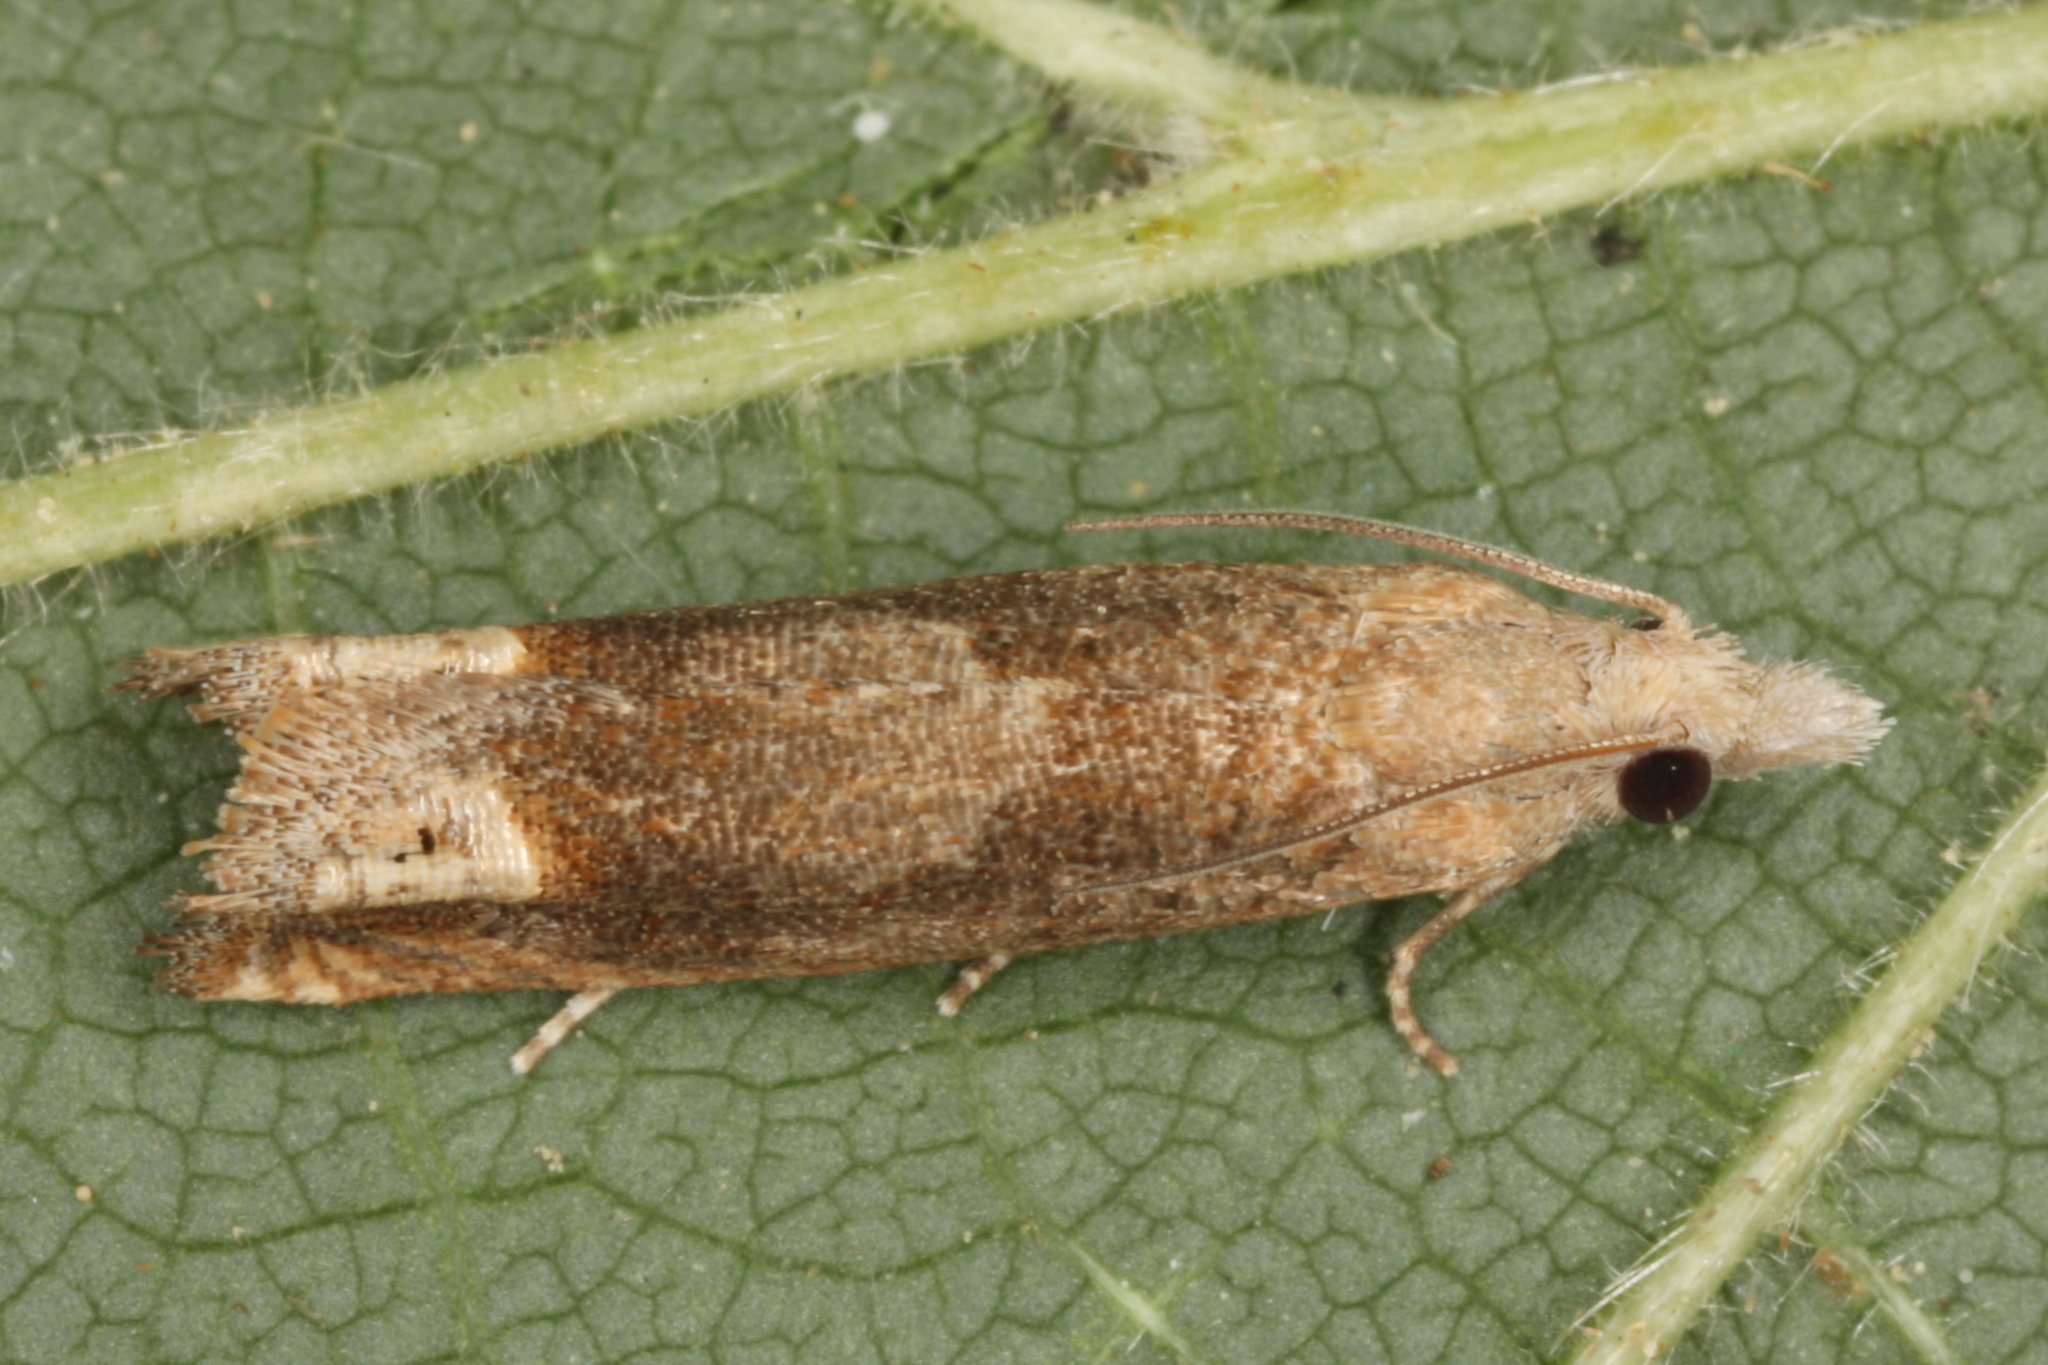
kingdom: Animalia
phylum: Arthropoda
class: Insecta
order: Lepidoptera
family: Tortricidae
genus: Eucosma
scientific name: Eucosma conterminana
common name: Pale lettuce bell
